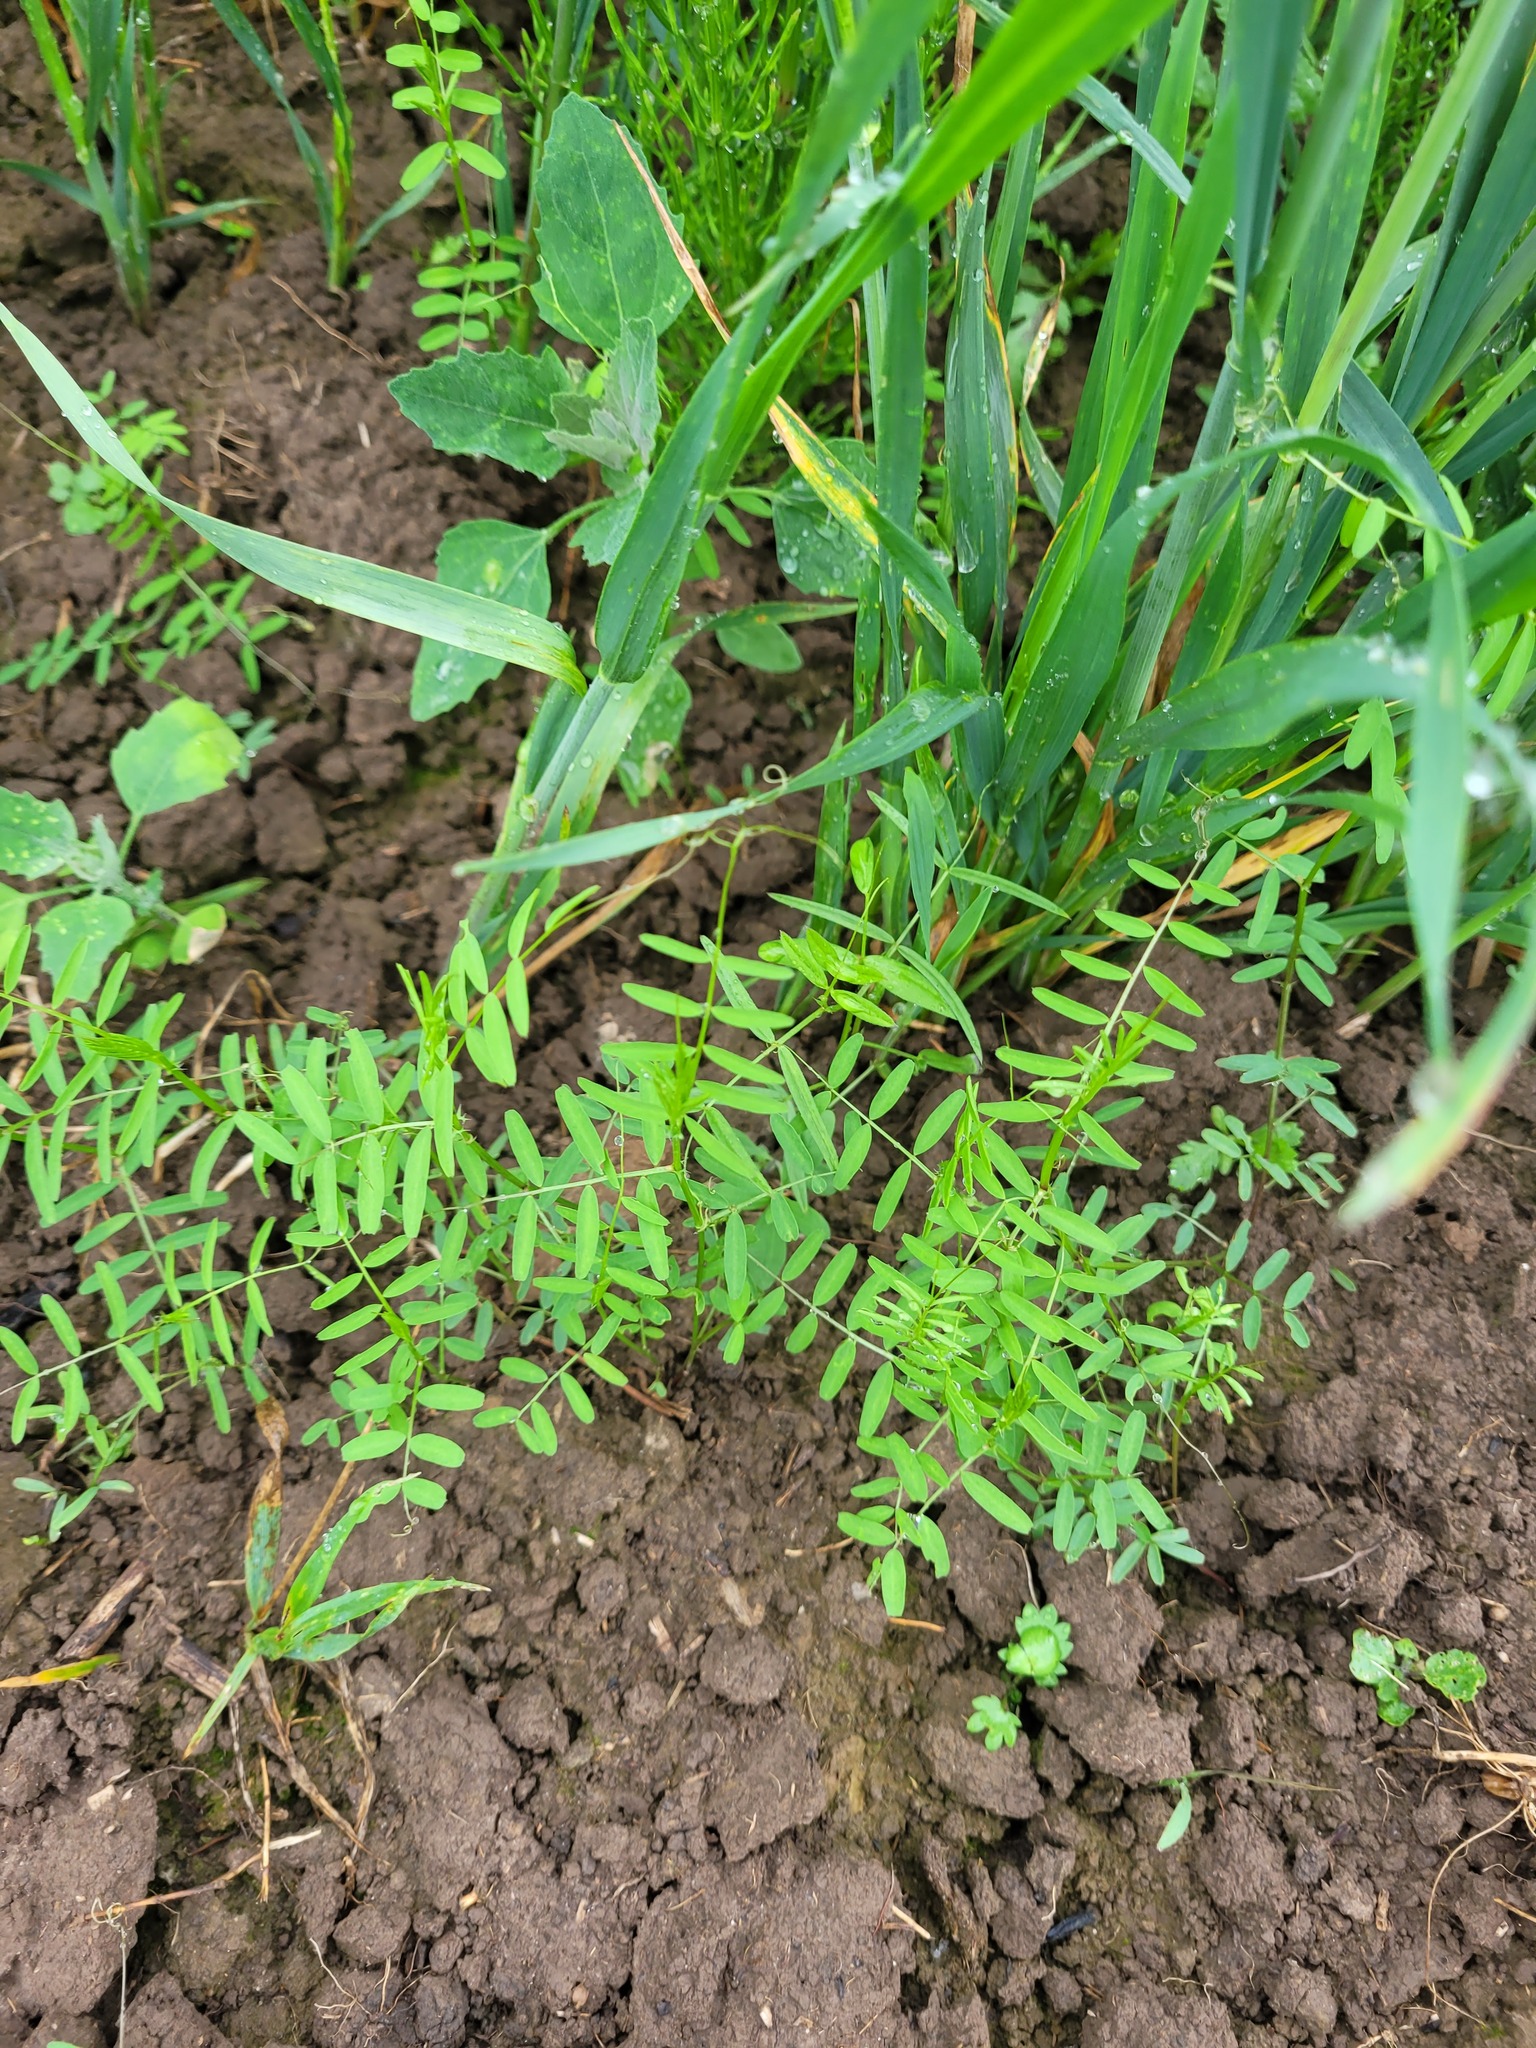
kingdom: Plantae
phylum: Tracheophyta
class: Magnoliopsida
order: Fabales
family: Fabaceae
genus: Vicia
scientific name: Vicia hirsuta
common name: Tiny vetch
